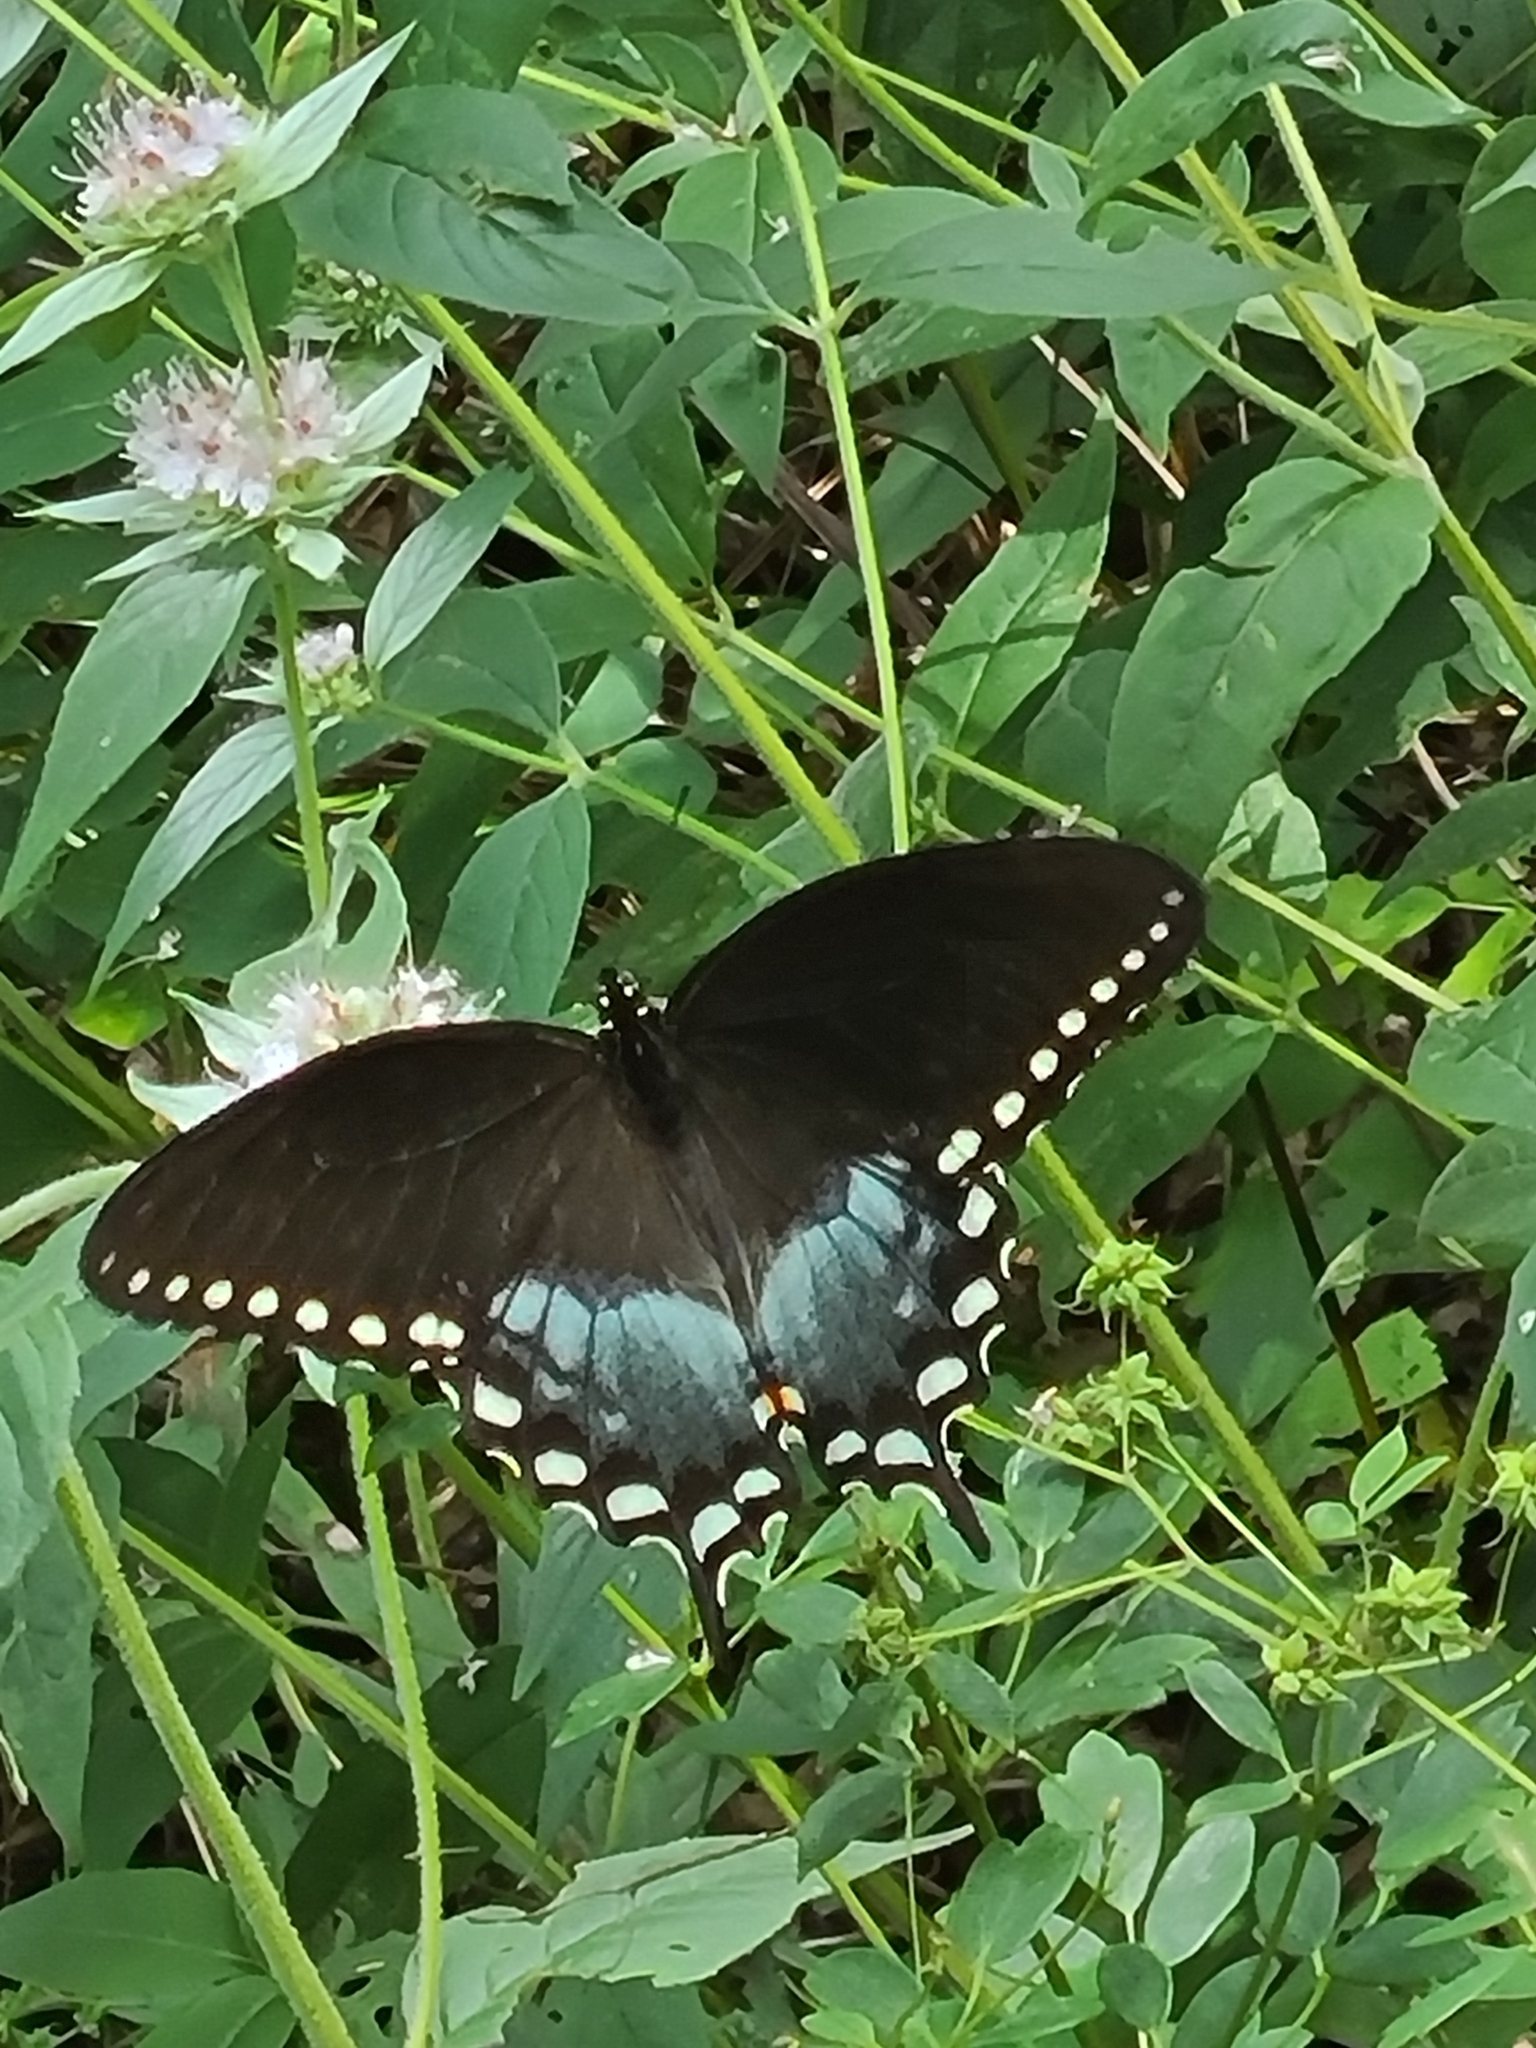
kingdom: Animalia
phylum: Arthropoda
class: Insecta
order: Lepidoptera
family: Papilionidae
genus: Papilio
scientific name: Papilio troilus
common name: Spicebush swallowtail
